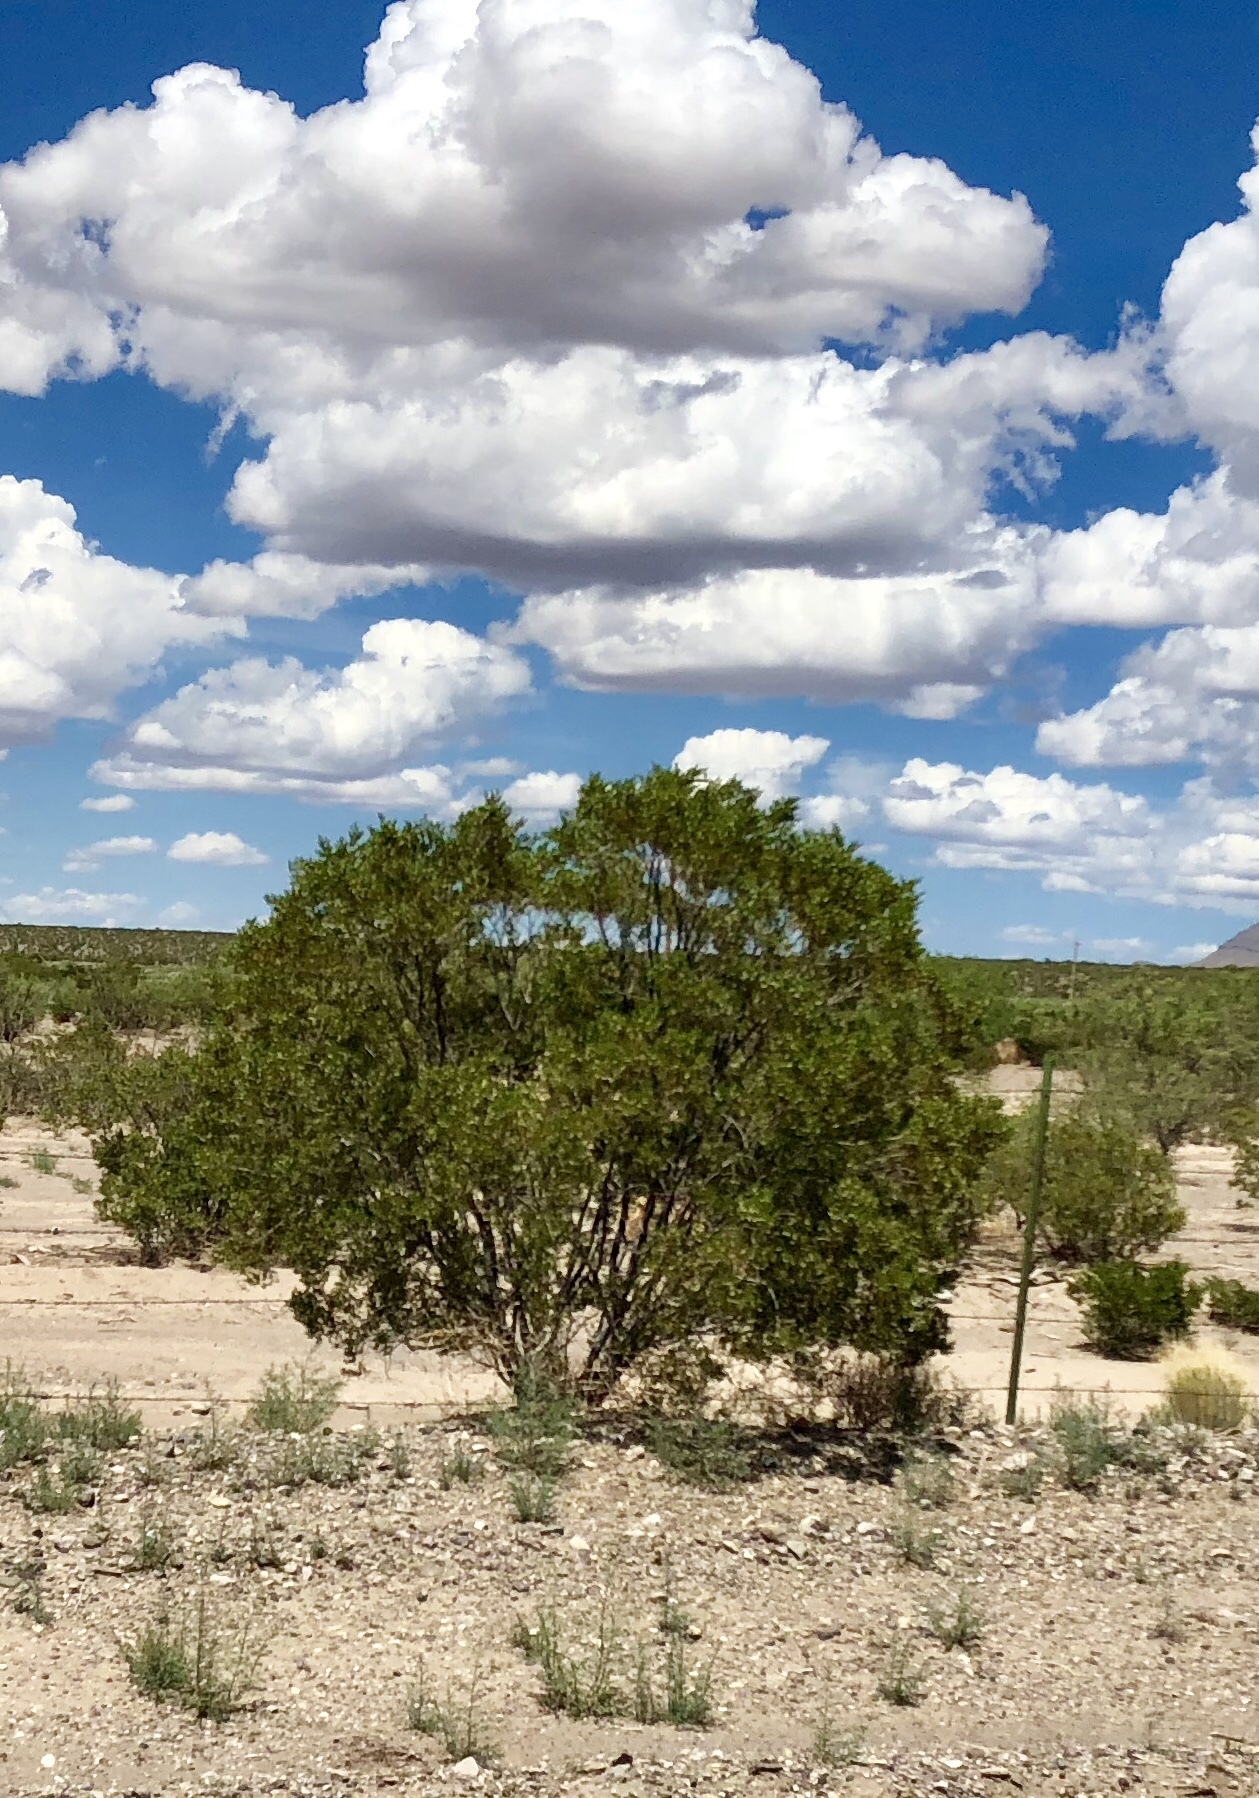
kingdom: Plantae
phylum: Tracheophyta
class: Magnoliopsida
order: Zygophyllales
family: Zygophyllaceae
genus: Larrea
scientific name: Larrea tridentata
